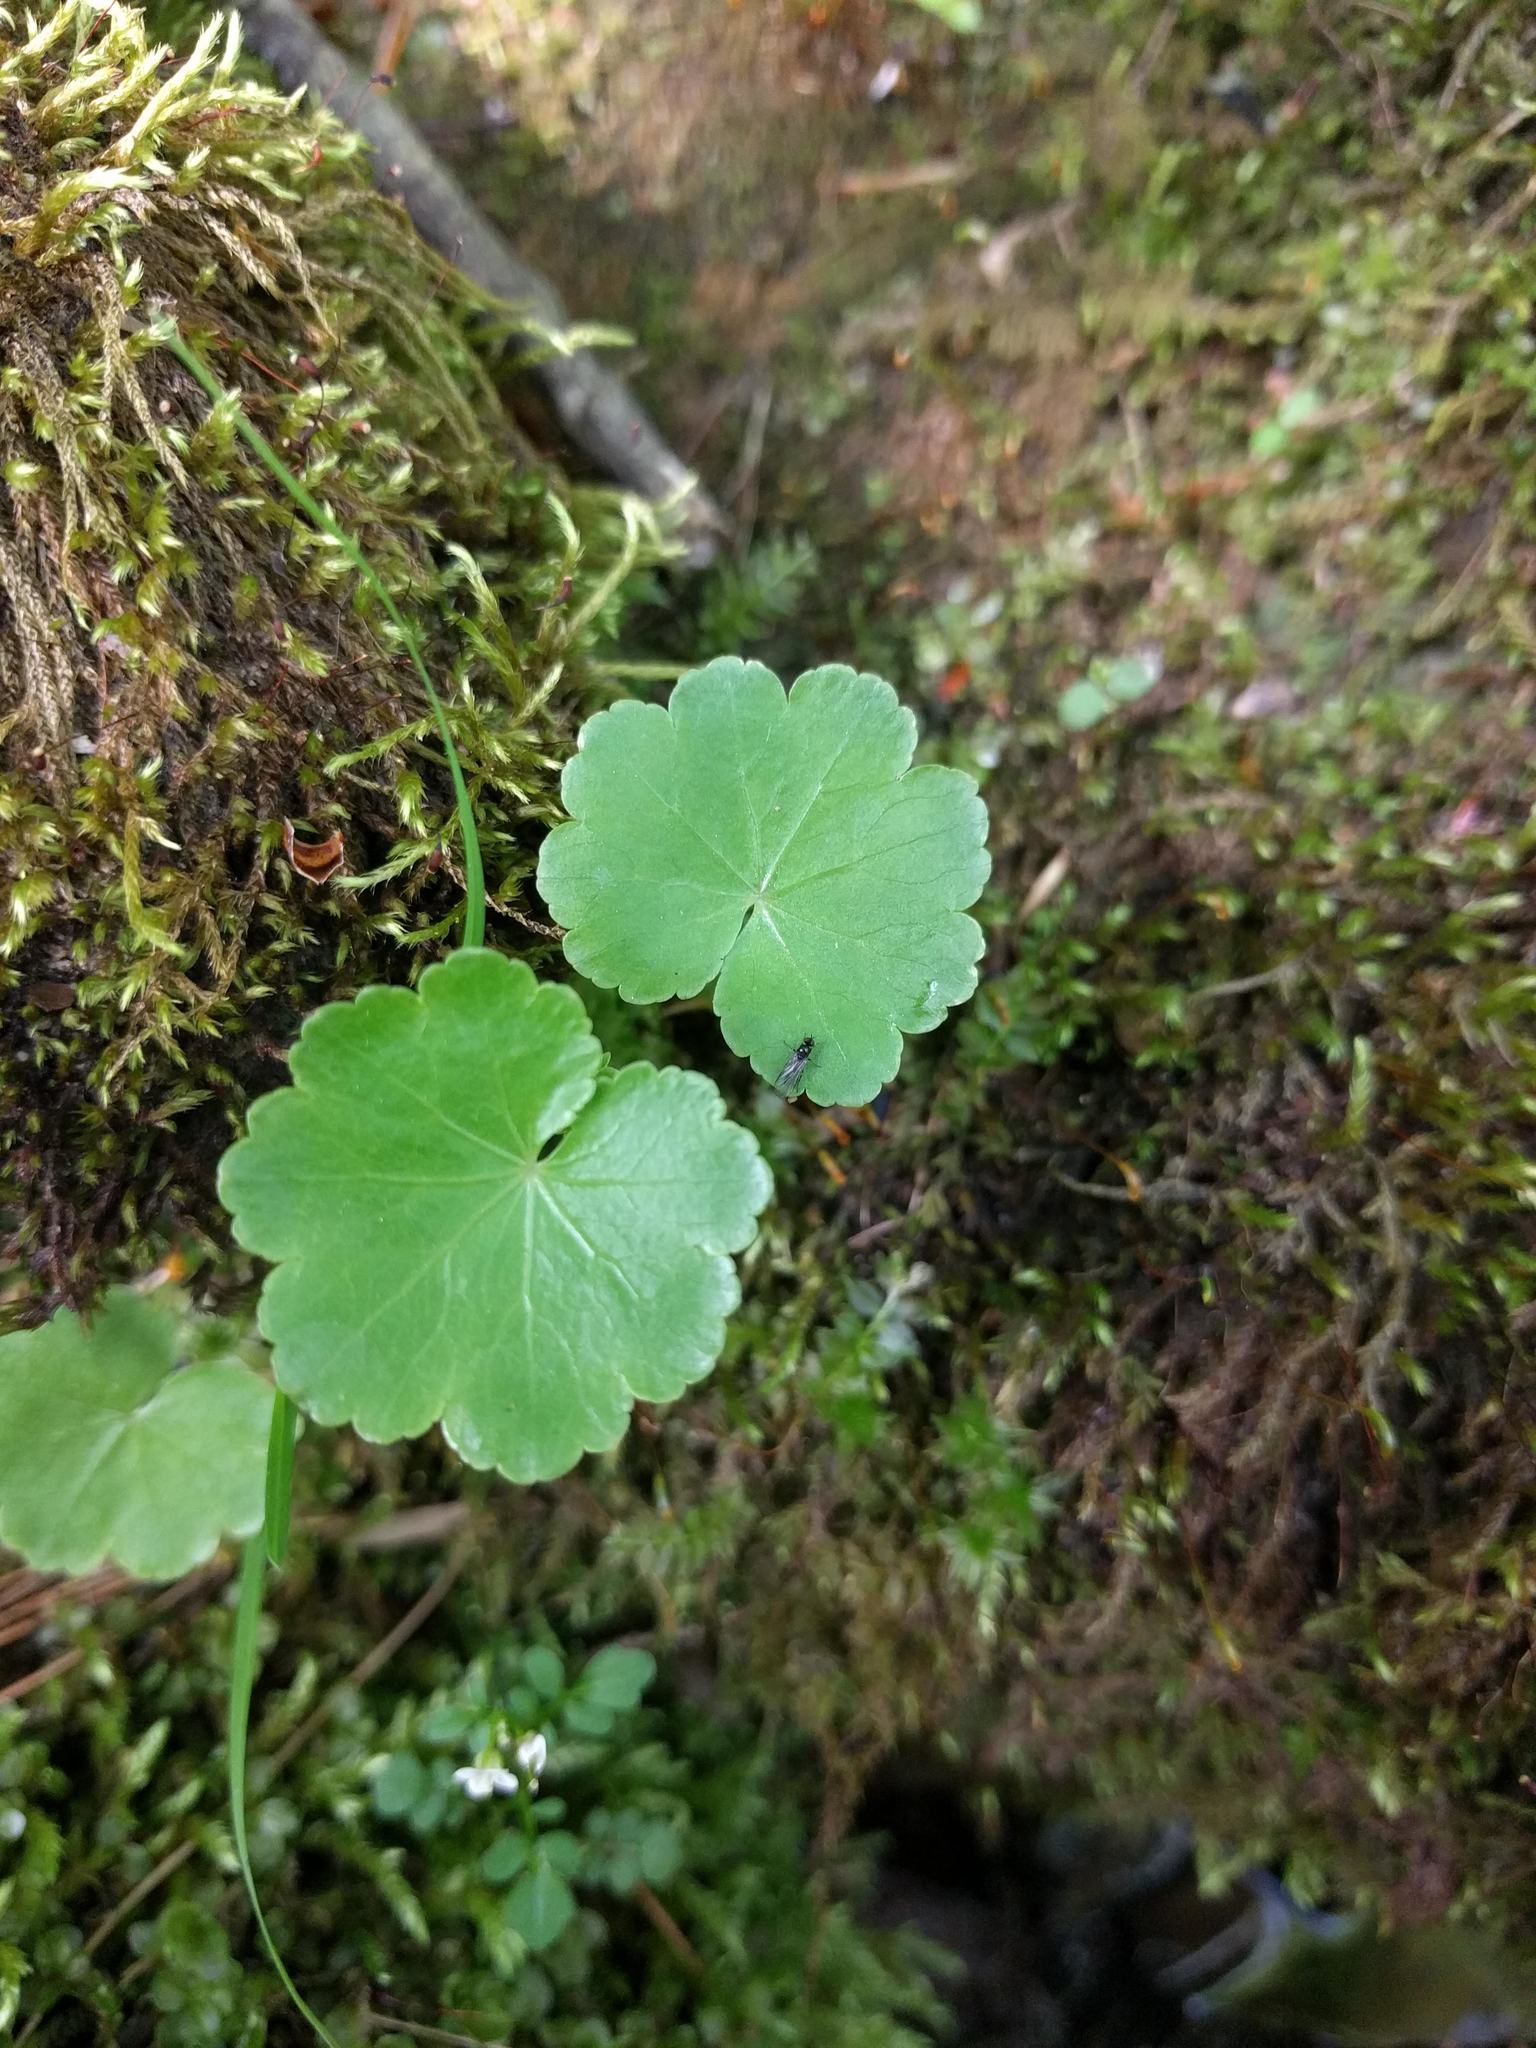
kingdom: Plantae
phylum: Tracheophyta
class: Magnoliopsida
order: Apiales
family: Araliaceae
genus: Hydrocotyle
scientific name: Hydrocotyle americana
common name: American water-pennywort
